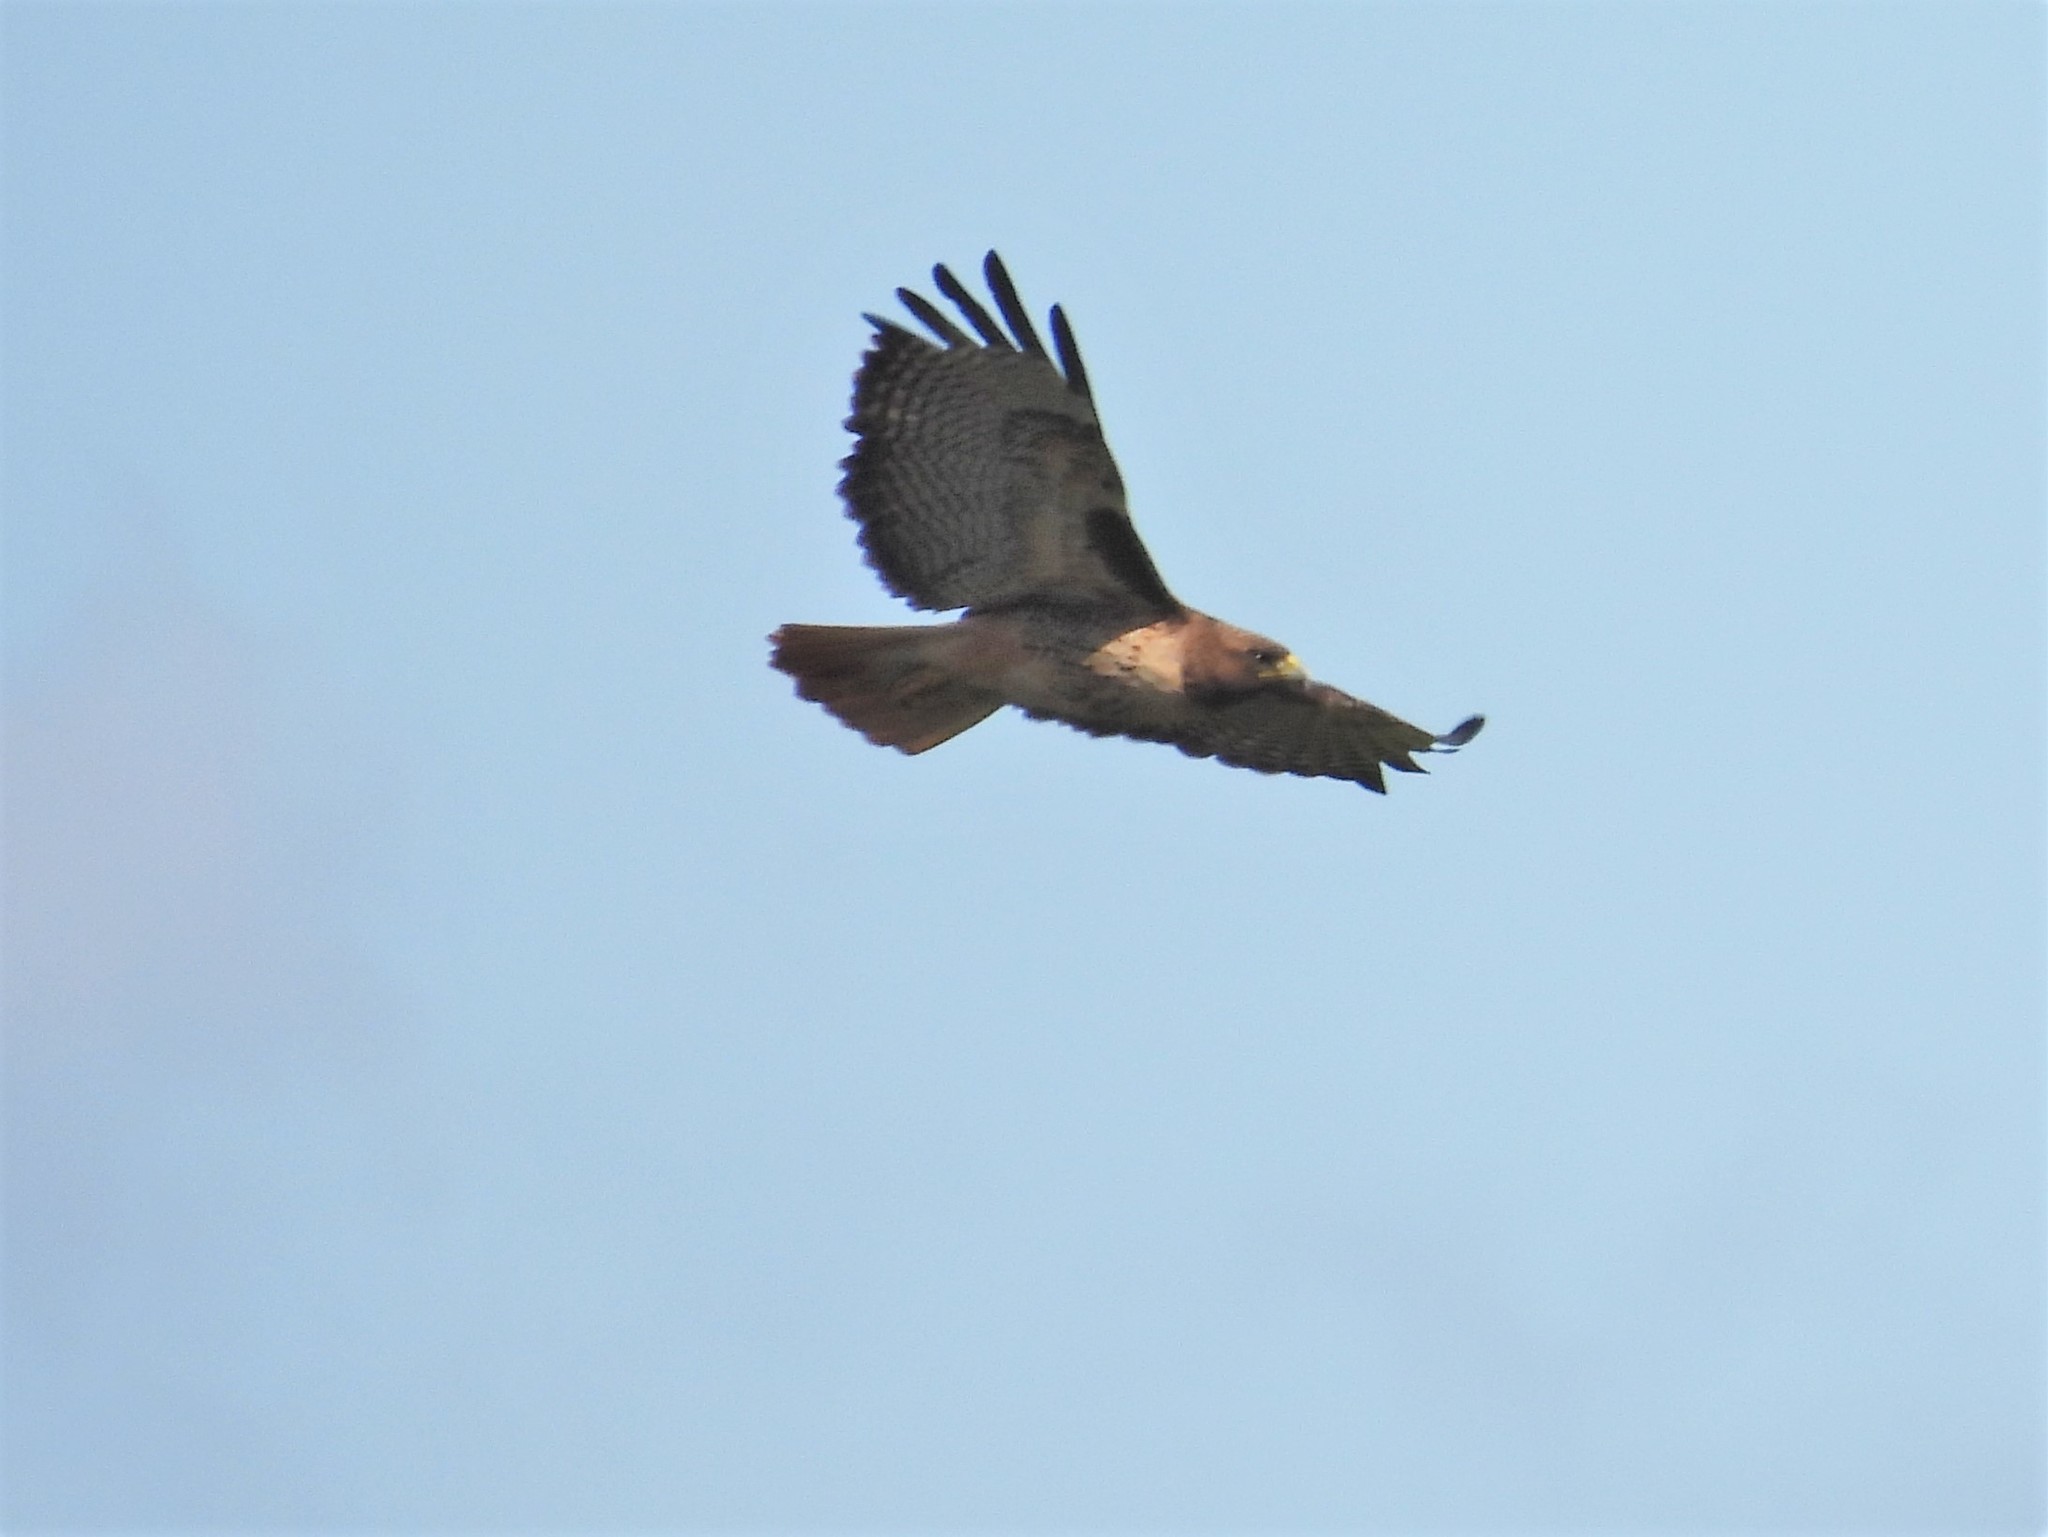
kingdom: Animalia
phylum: Chordata
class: Aves
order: Accipitriformes
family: Accipitridae
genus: Buteo
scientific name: Buteo jamaicensis
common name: Red-tailed hawk
